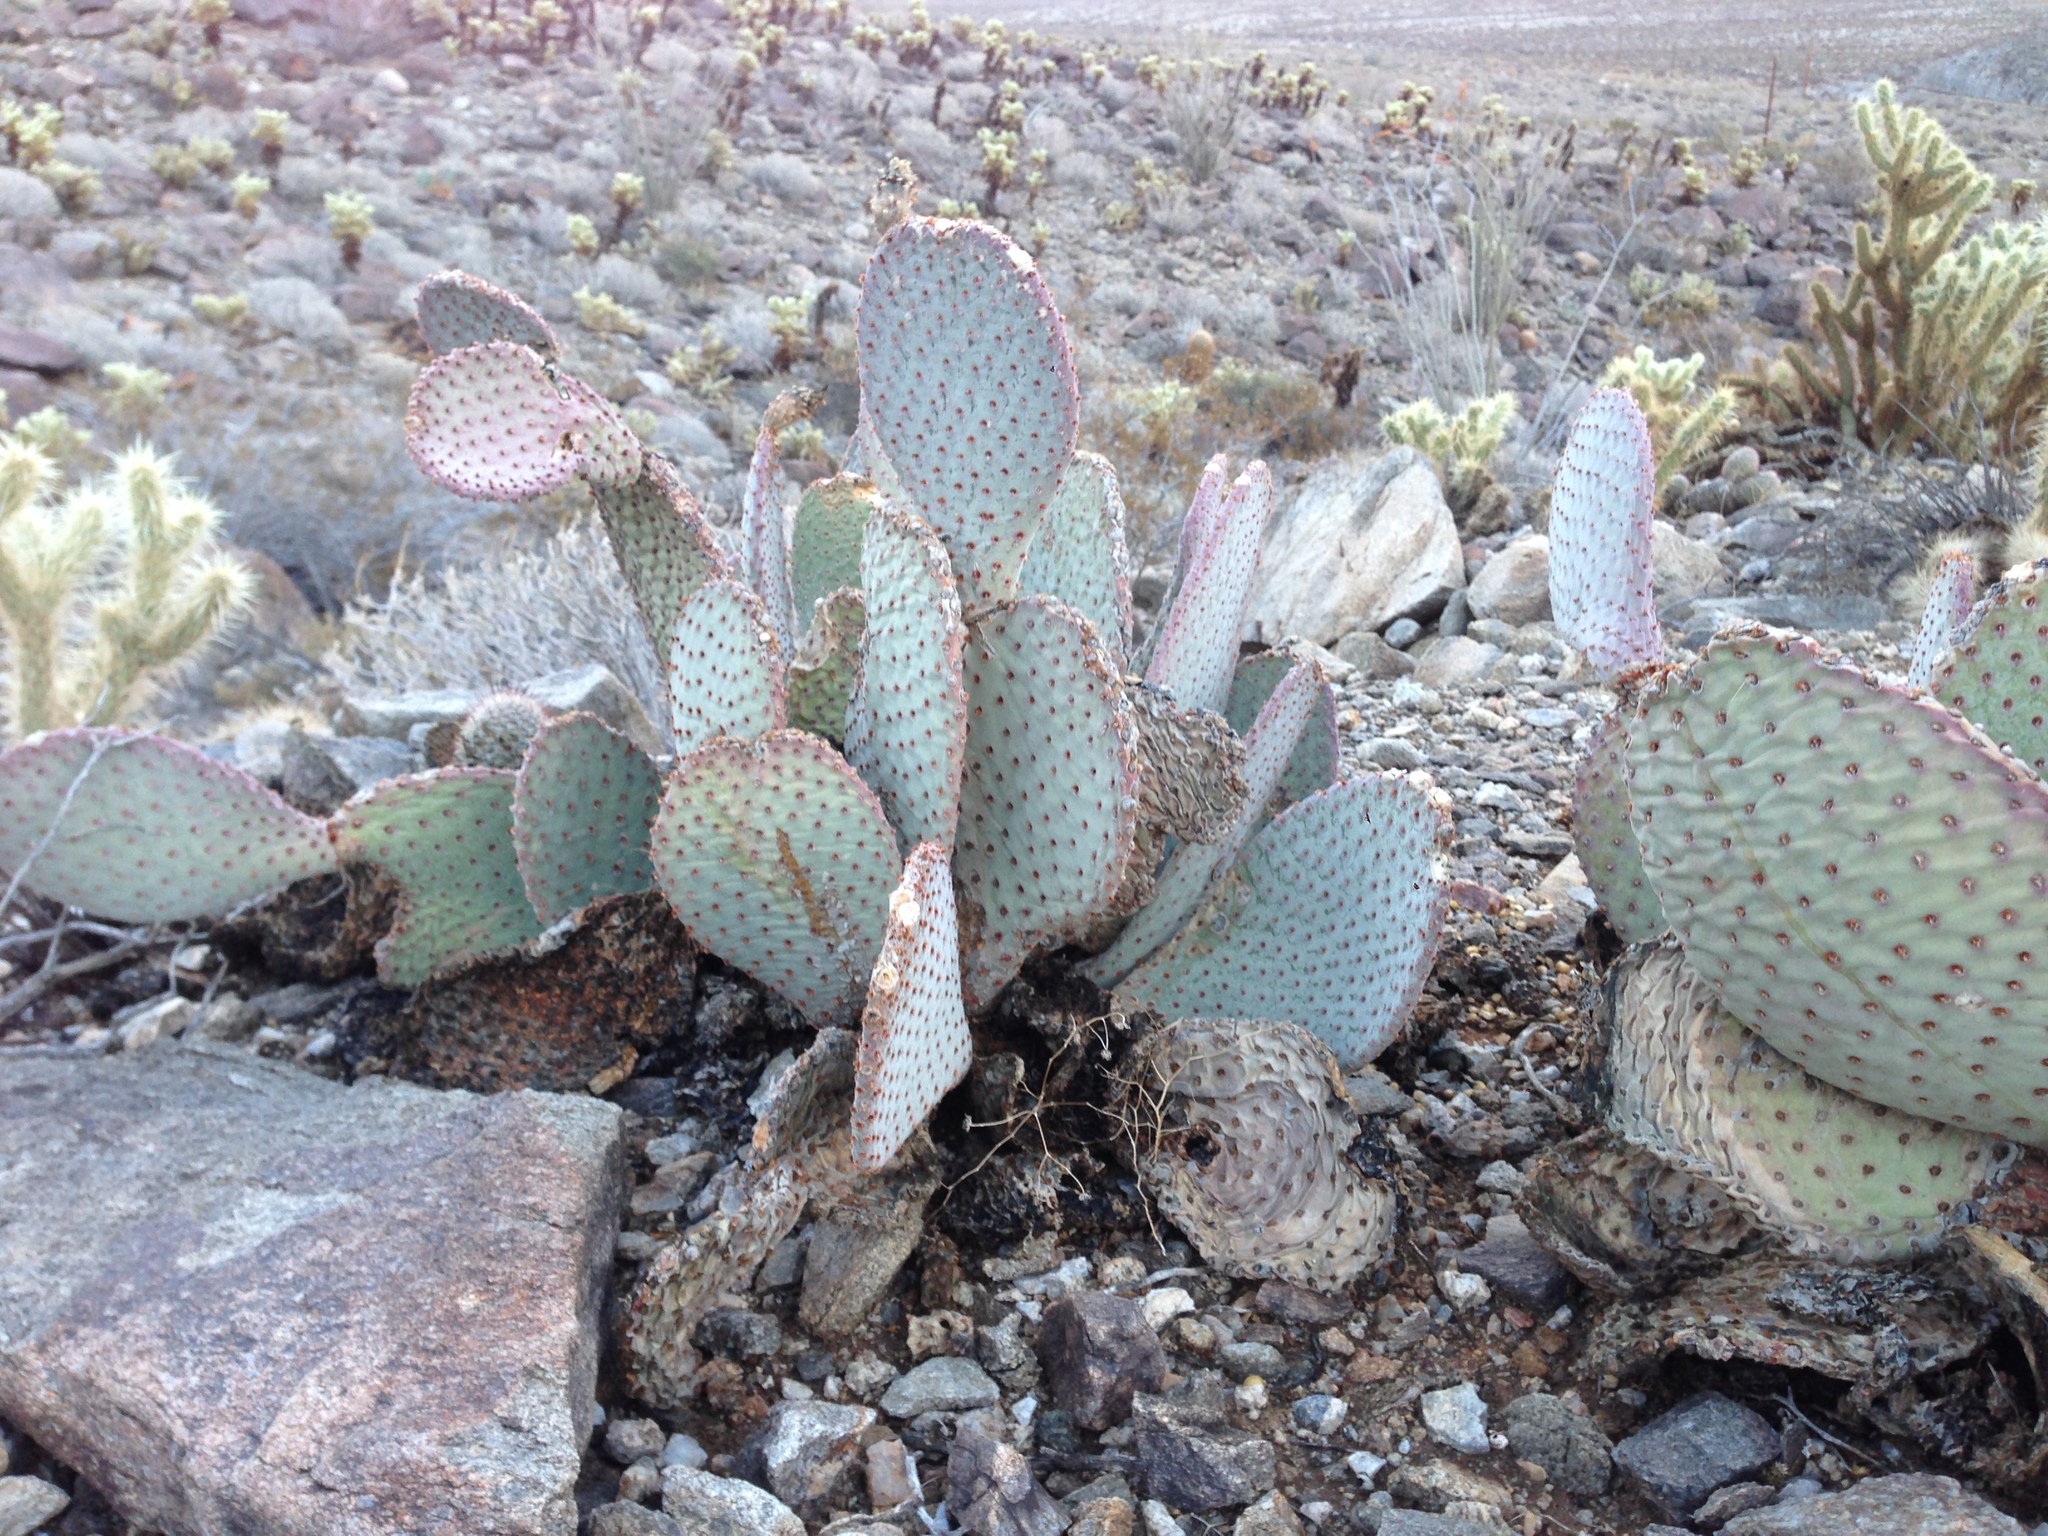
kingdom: Plantae
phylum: Tracheophyta
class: Magnoliopsida
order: Caryophyllales
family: Cactaceae
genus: Opuntia
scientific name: Opuntia basilaris
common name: Beavertail prickly-pear
